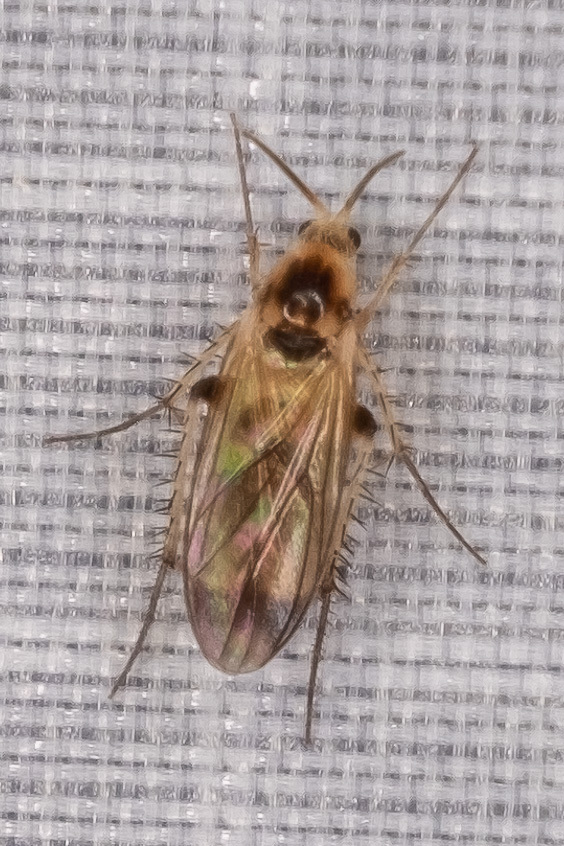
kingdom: Animalia
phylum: Arthropoda
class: Insecta
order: Diptera
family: Mycetophilidae
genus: Rondaniella
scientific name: Rondaniella dimidiata
